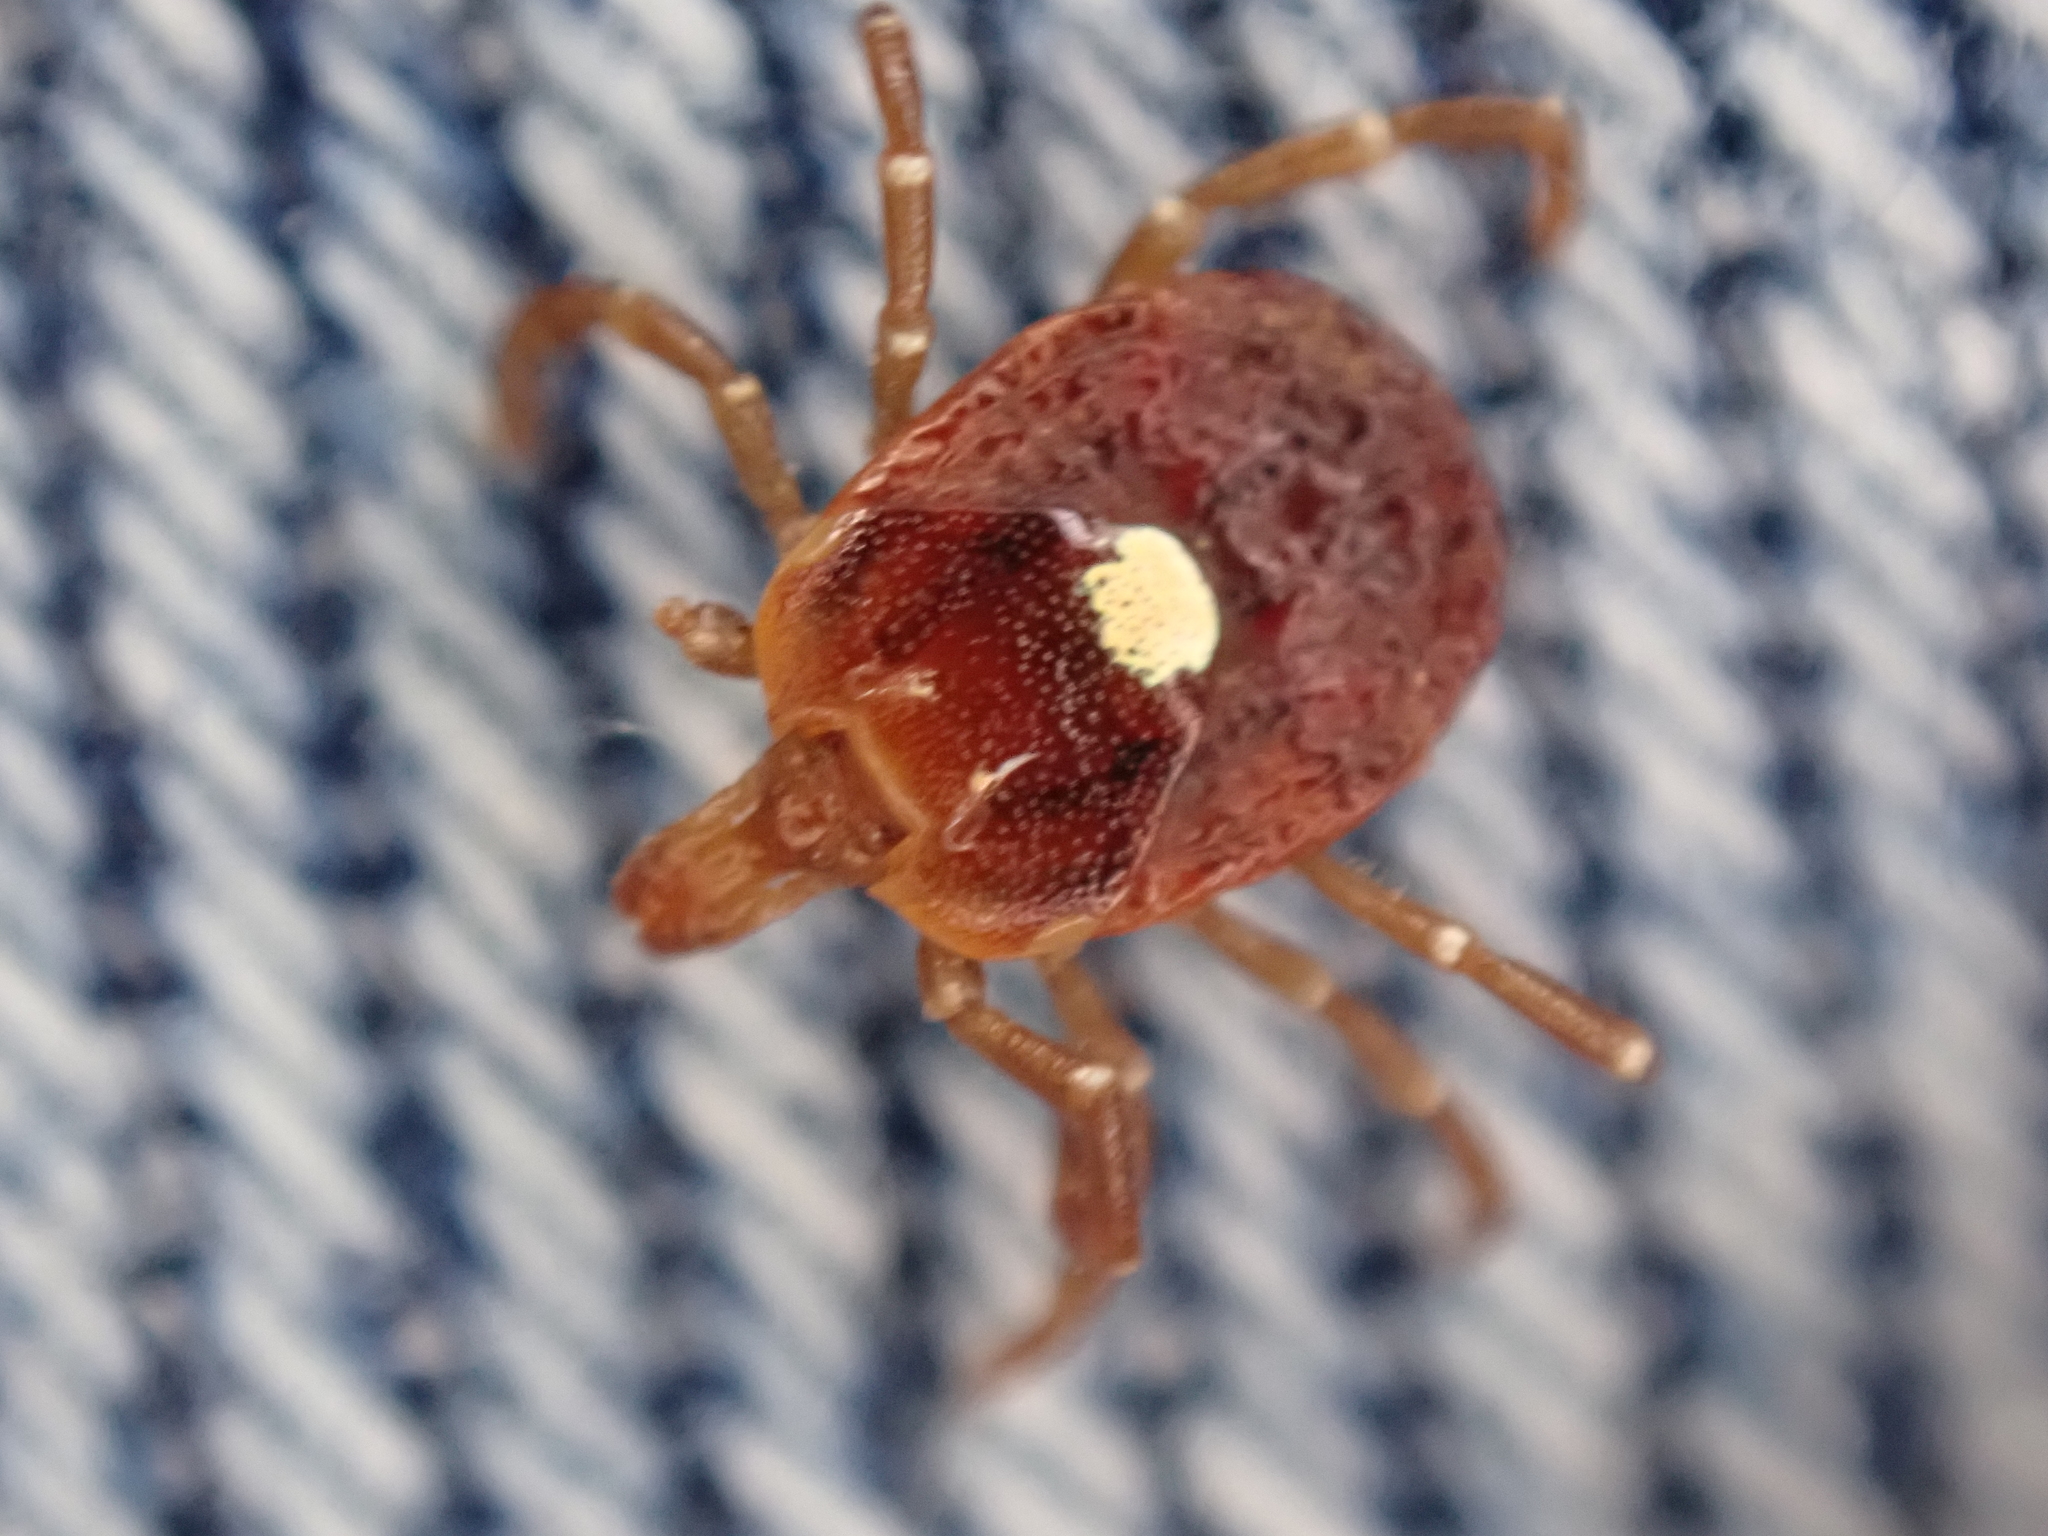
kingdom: Animalia
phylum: Arthropoda
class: Arachnida
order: Ixodida
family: Ixodidae
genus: Amblyomma
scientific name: Amblyomma americanum
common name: Lone star tick
